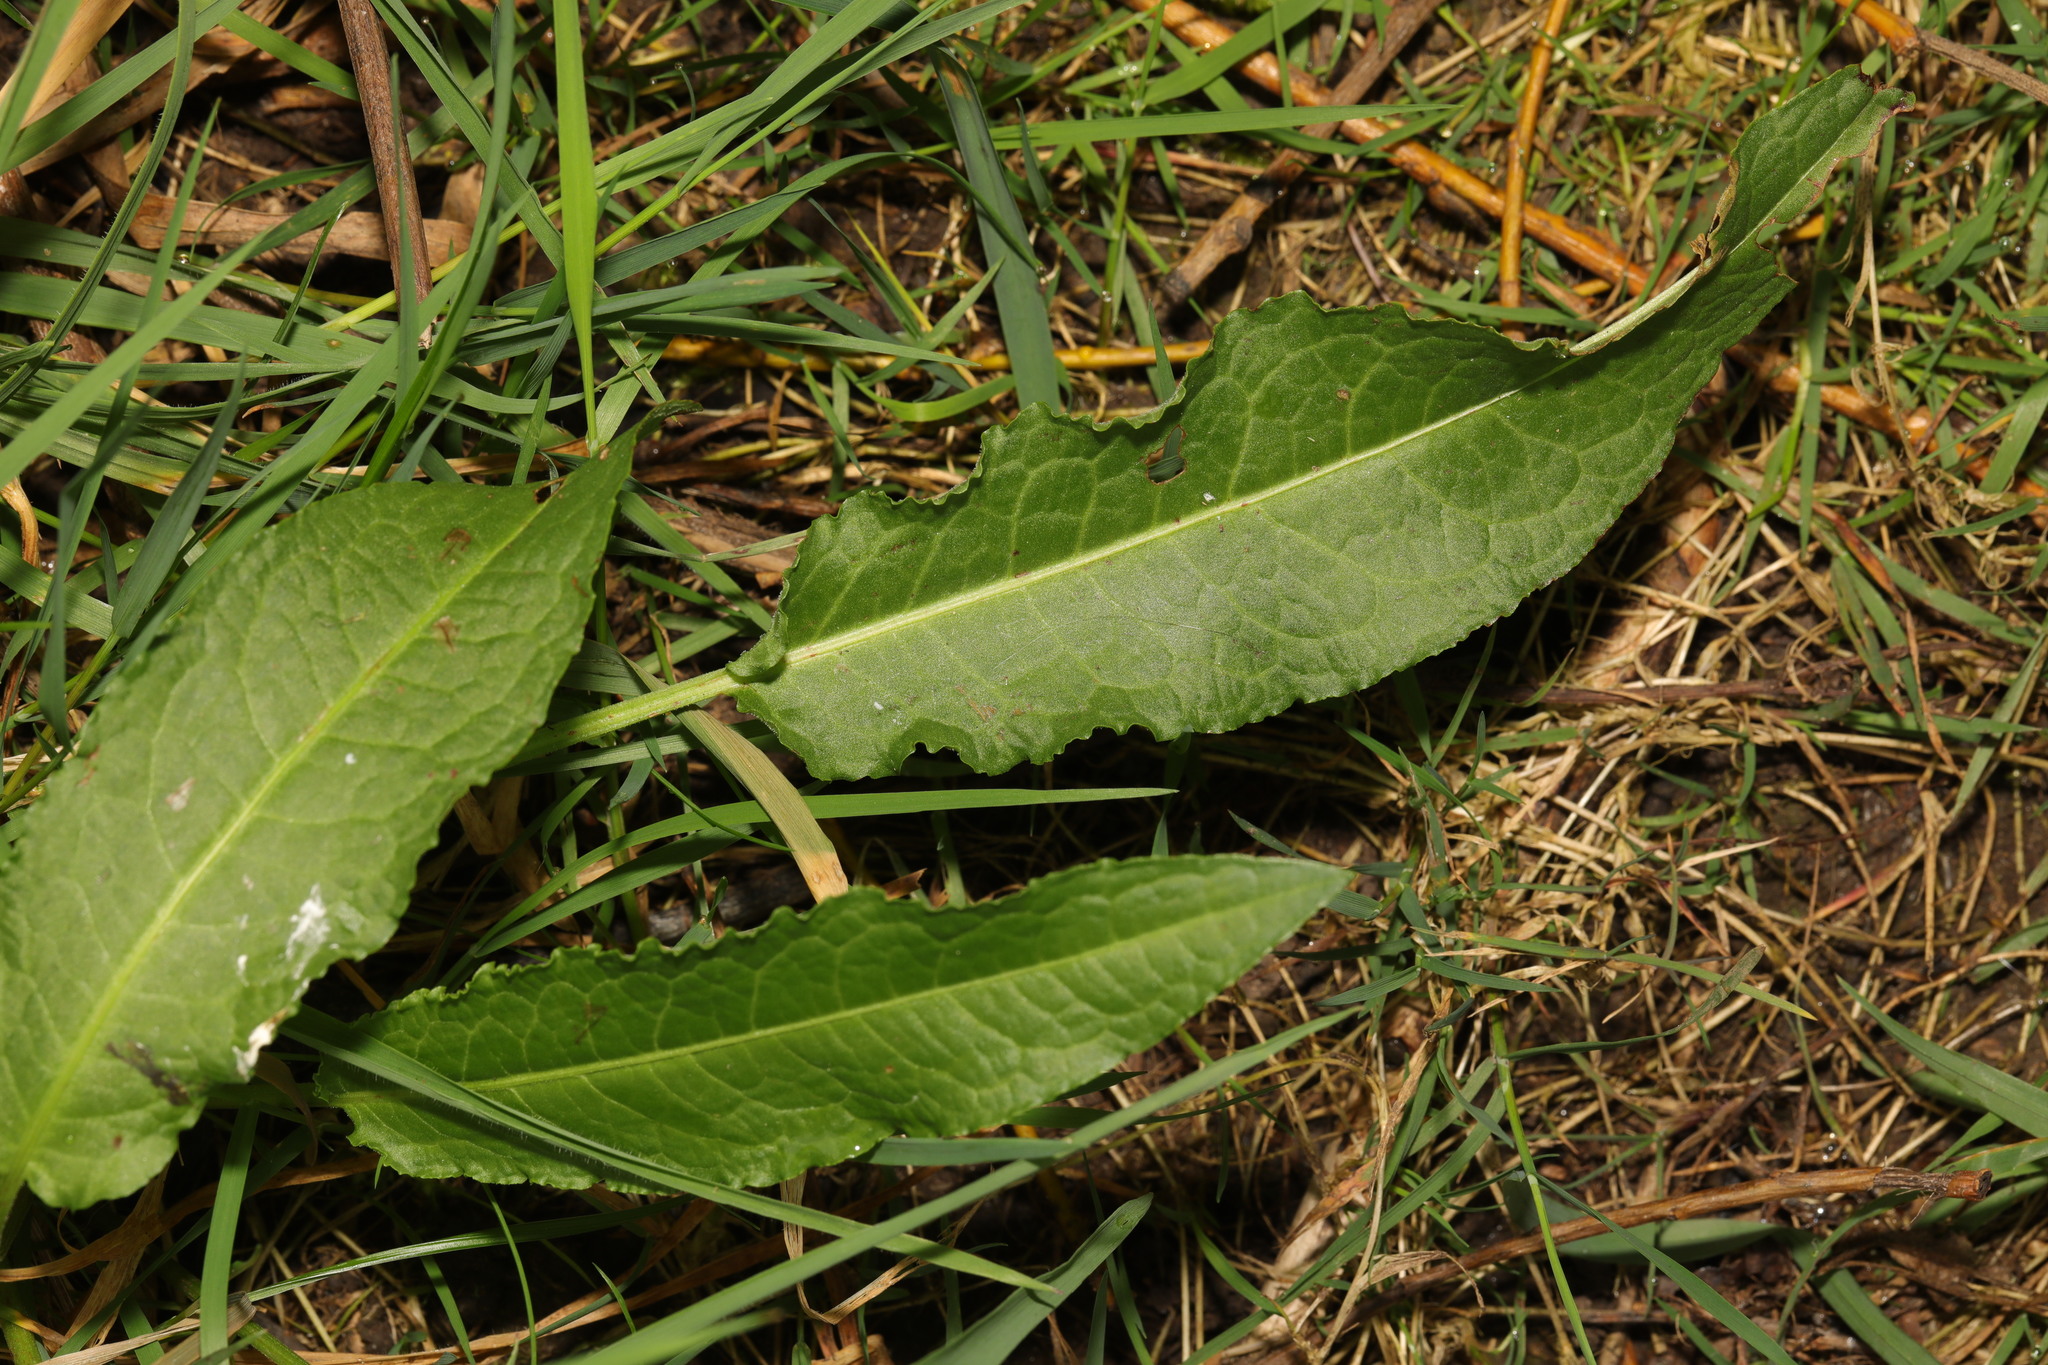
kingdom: Plantae
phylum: Tracheophyta
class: Magnoliopsida
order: Caryophyllales
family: Polygonaceae
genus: Rumex
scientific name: Rumex crispus
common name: Curled dock
